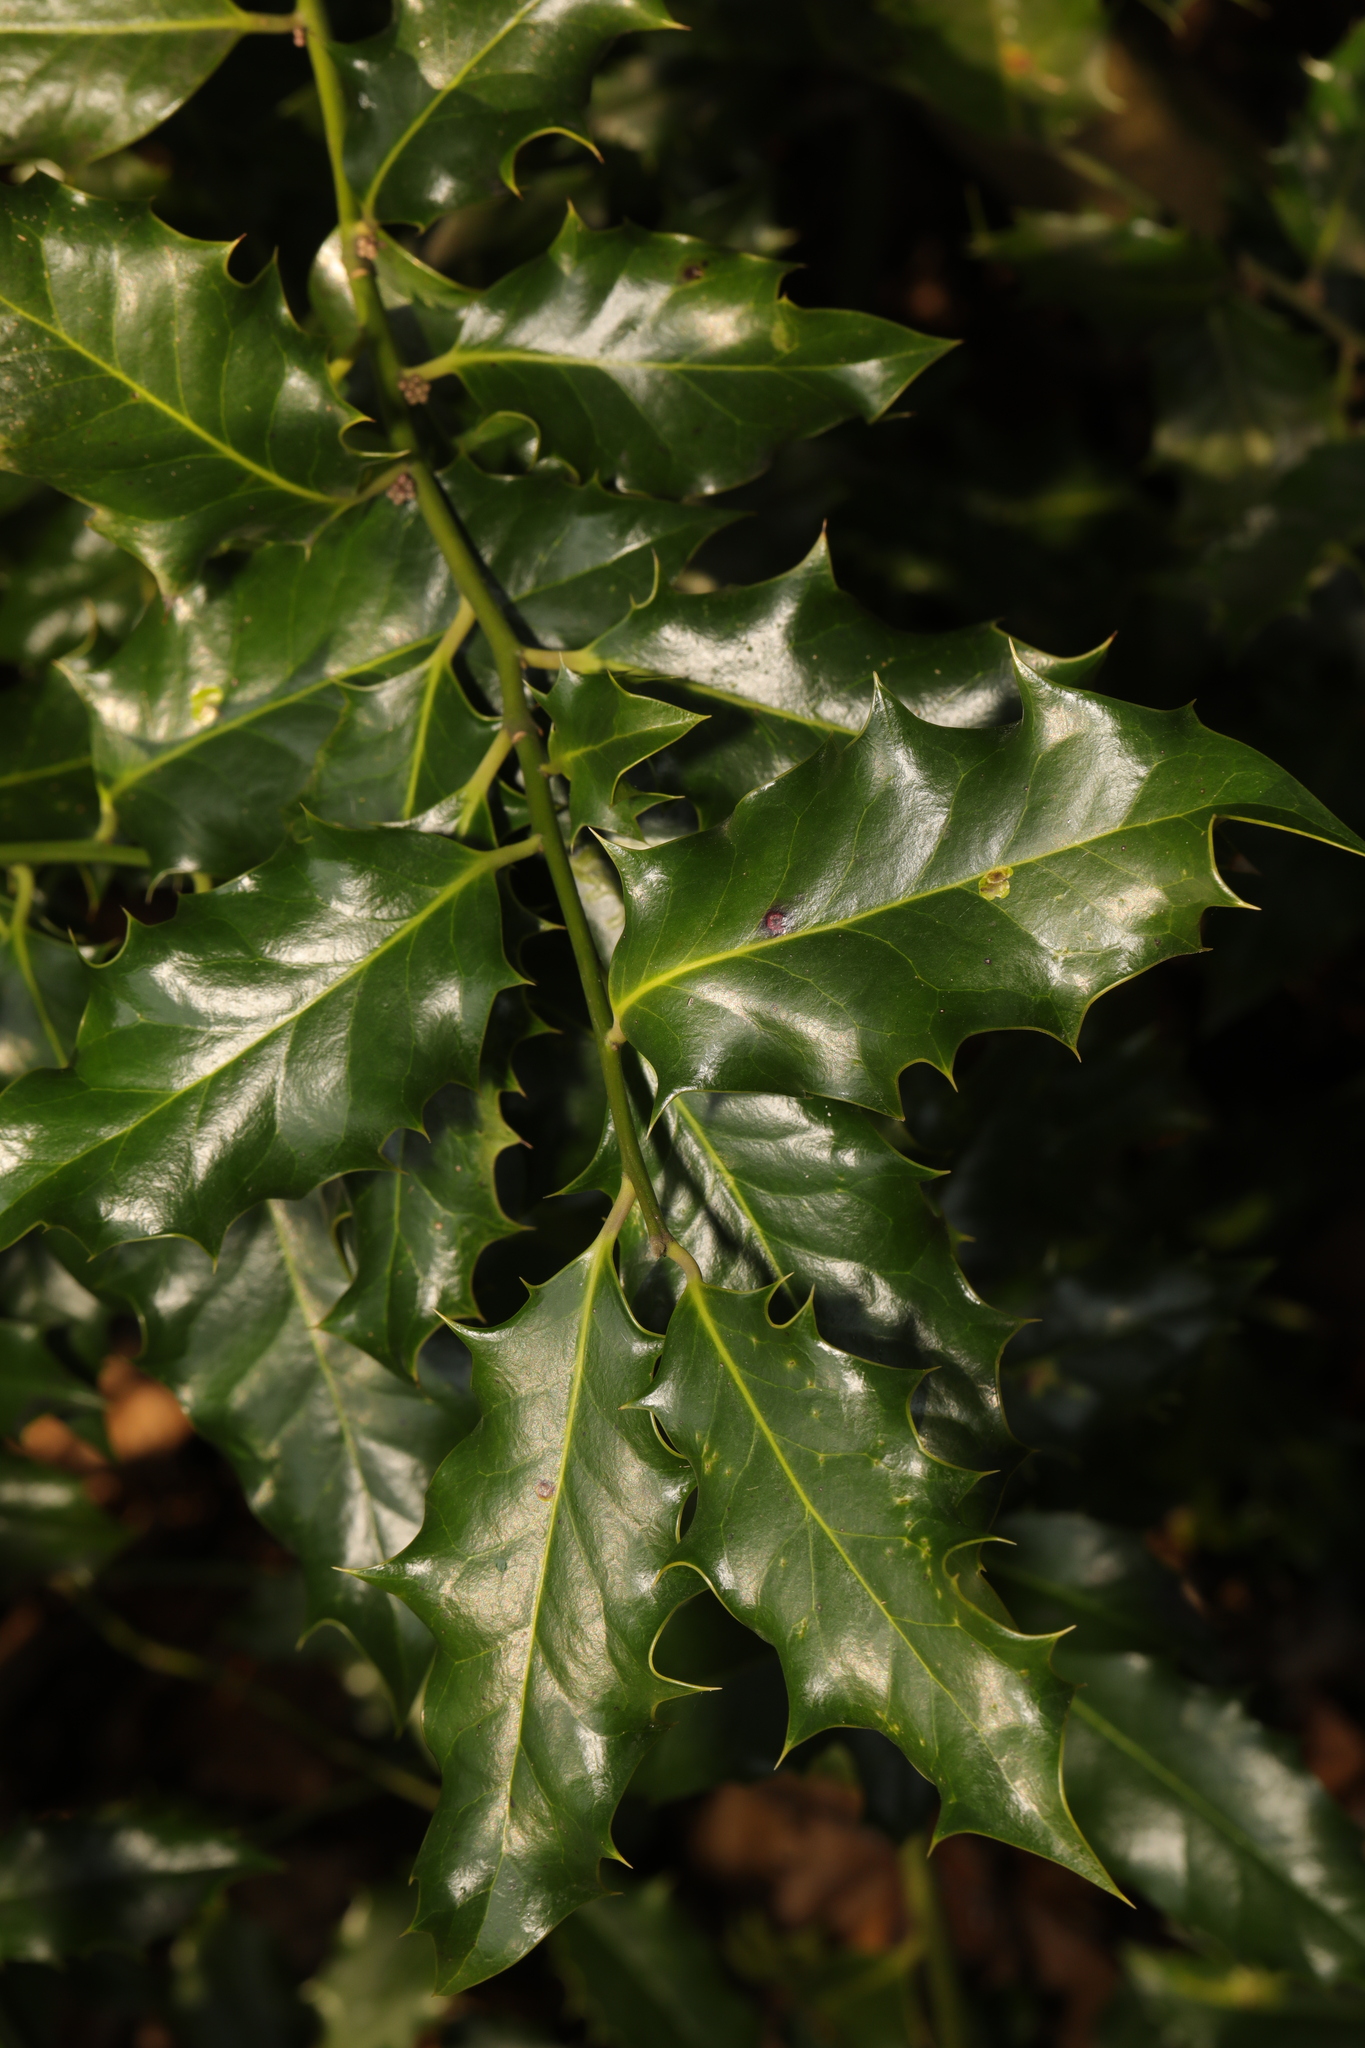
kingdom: Plantae
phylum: Tracheophyta
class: Magnoliopsida
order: Aquifoliales
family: Aquifoliaceae
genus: Ilex
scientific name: Ilex aquifolium
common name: English holly
